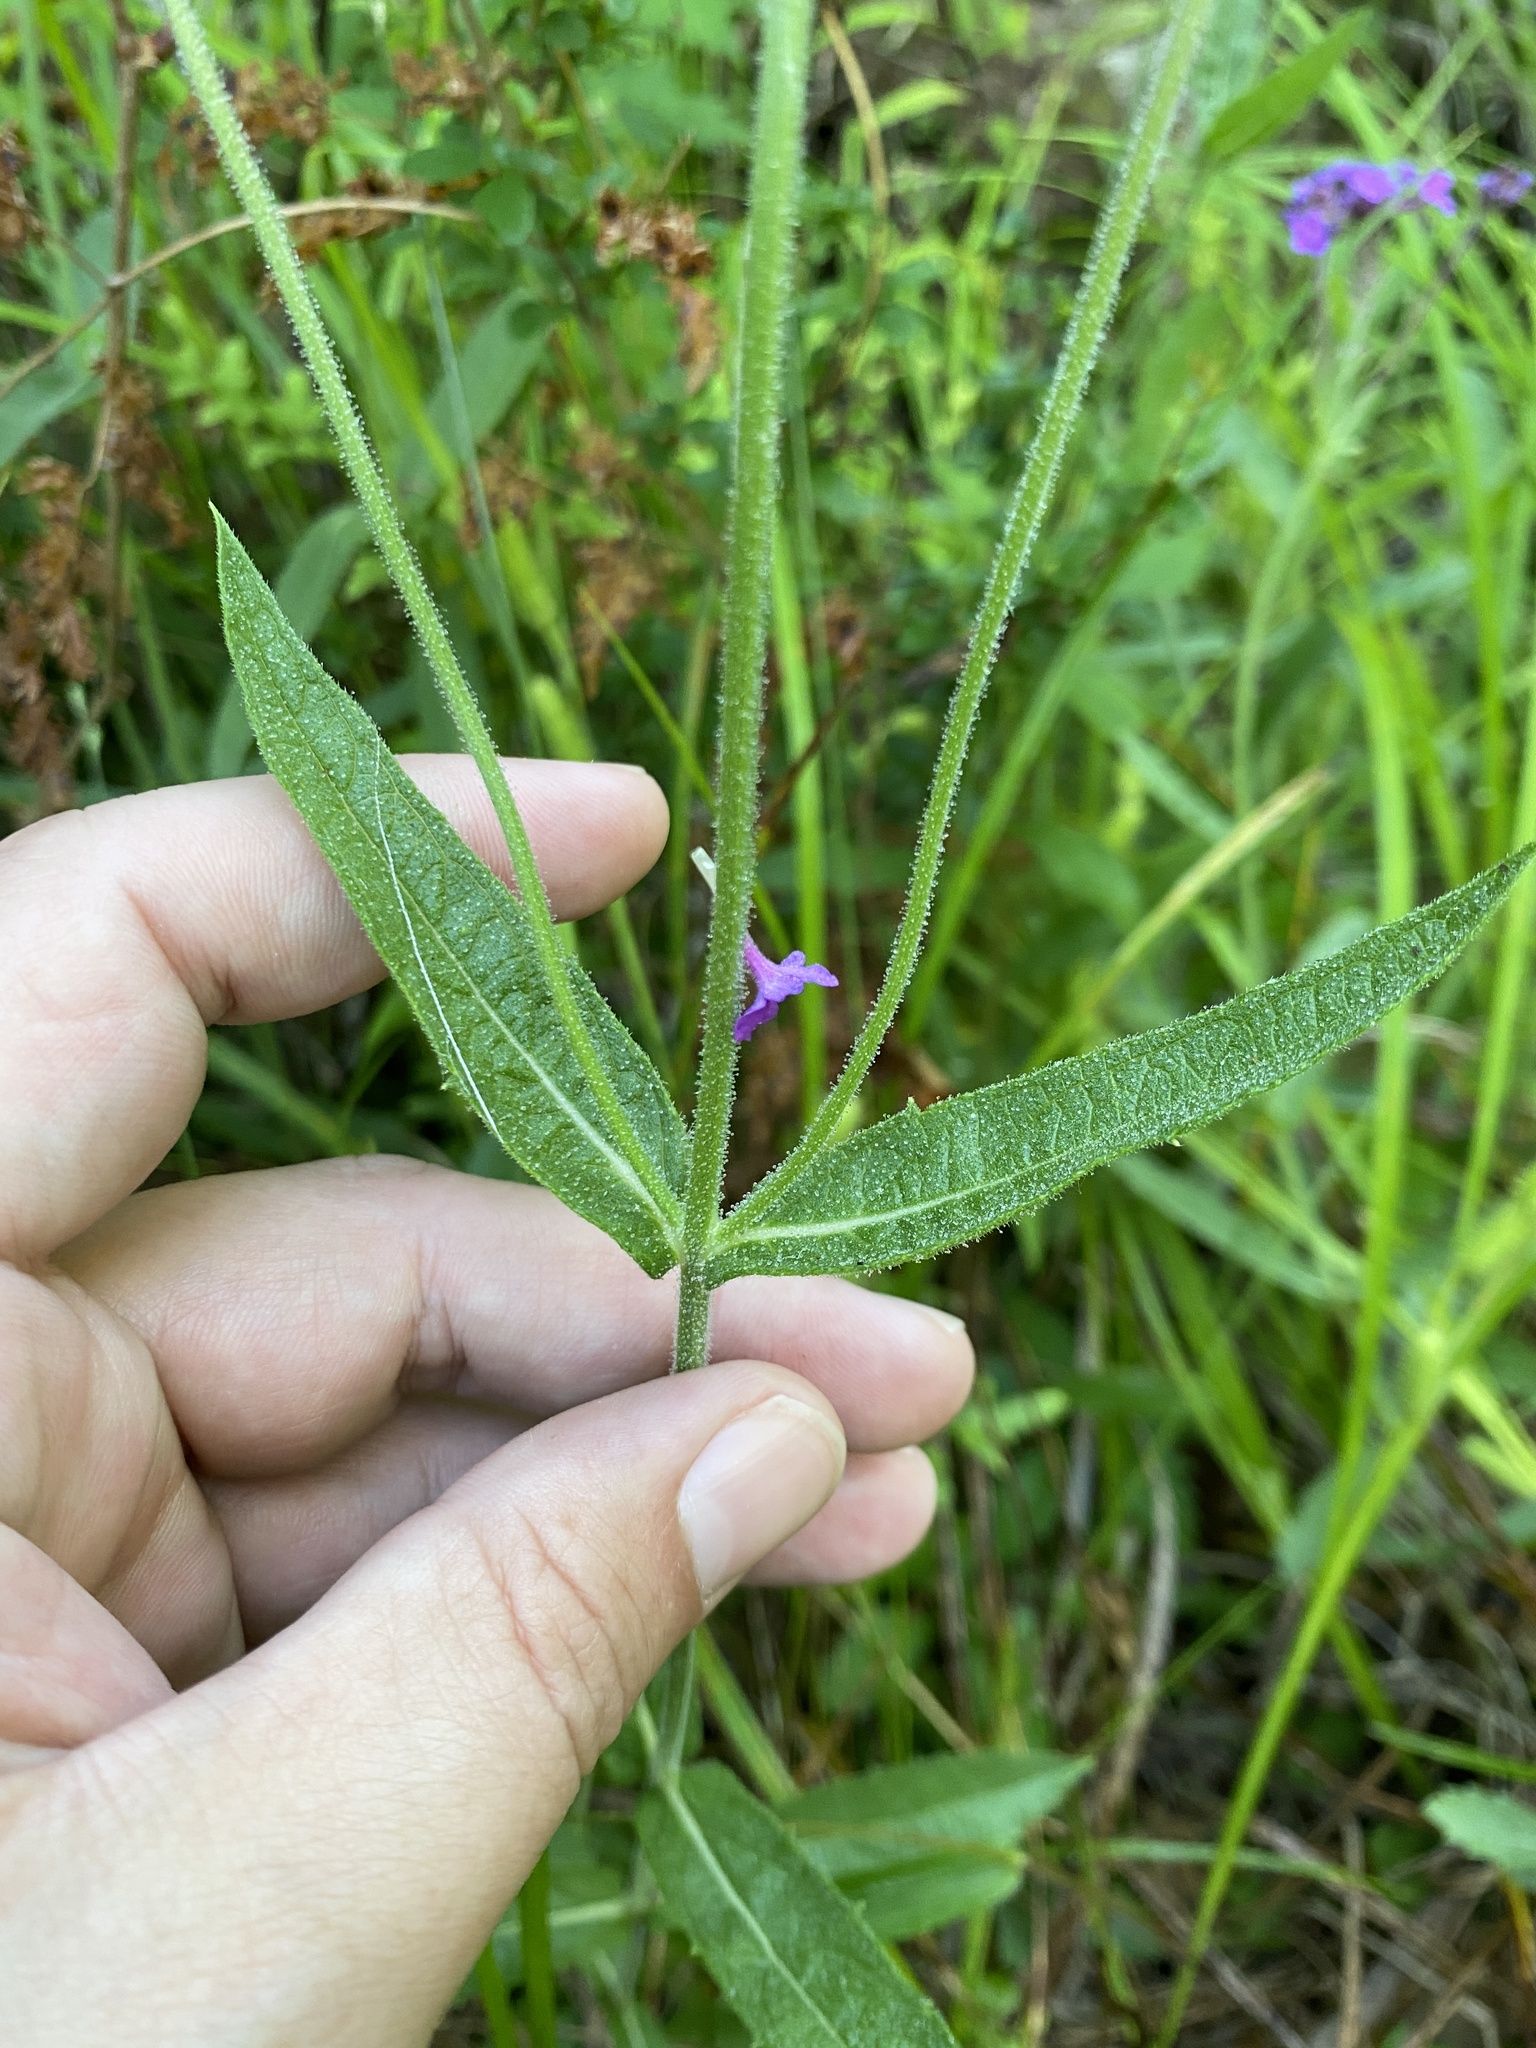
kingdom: Plantae
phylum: Tracheophyta
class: Magnoliopsida
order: Lamiales
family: Verbenaceae
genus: Verbena
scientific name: Verbena rigida
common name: Slender vervain
